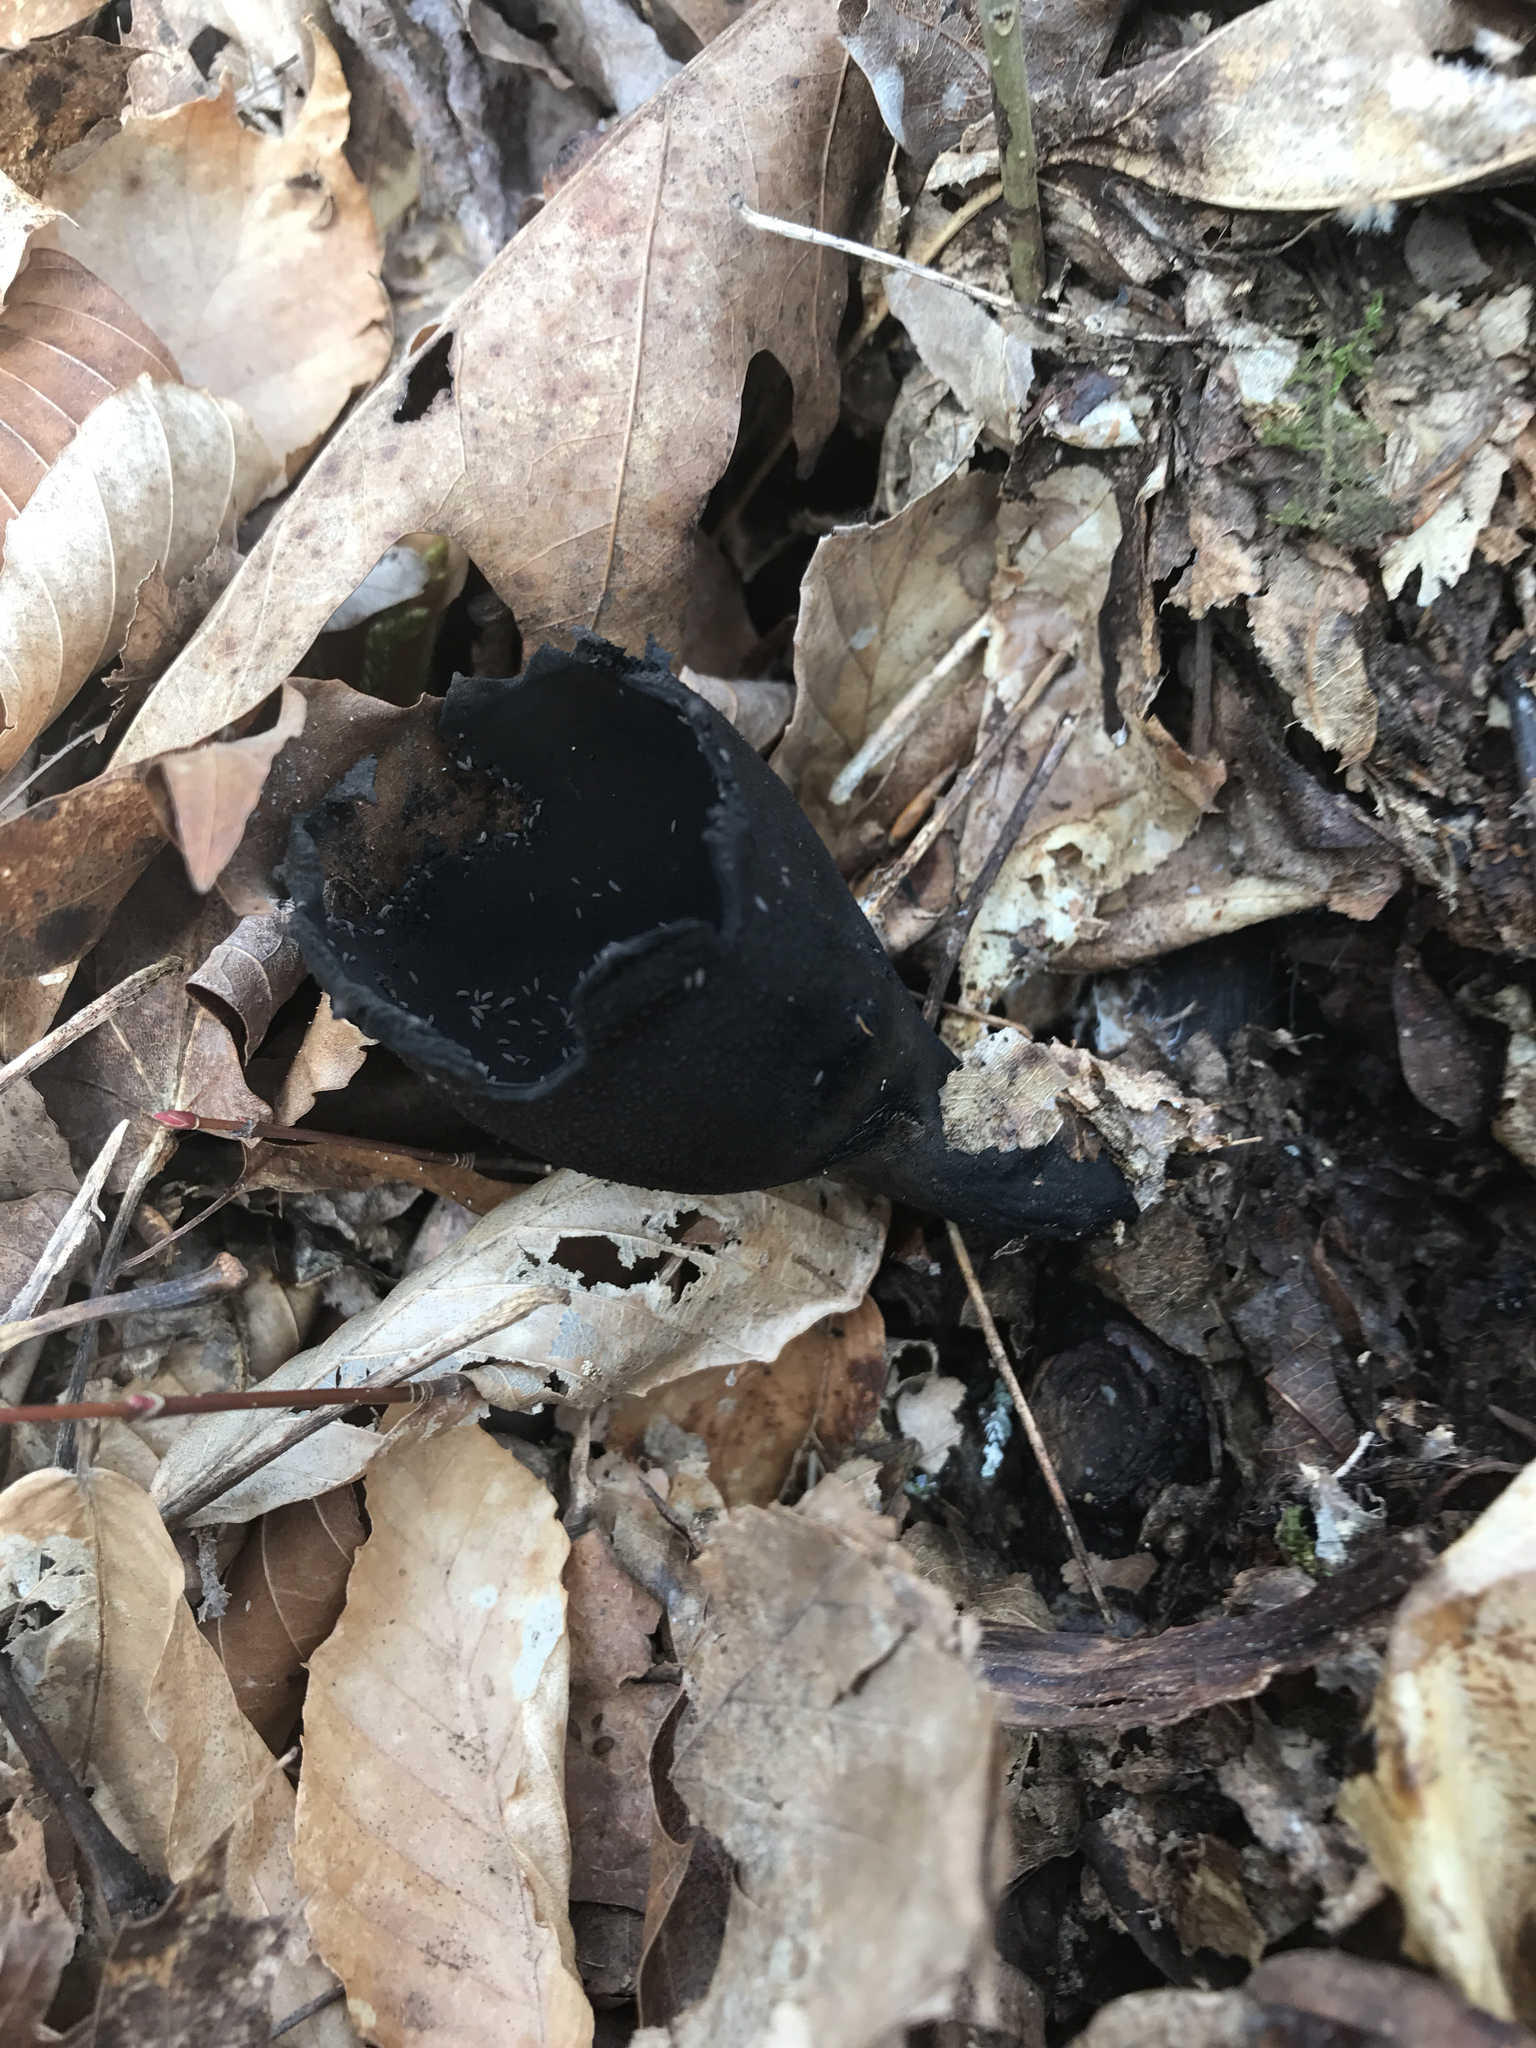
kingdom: Fungi
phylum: Ascomycota
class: Pezizomycetes
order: Pezizales
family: Sarcosomataceae
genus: Urnula
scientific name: Urnula craterium
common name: Devil's urn
